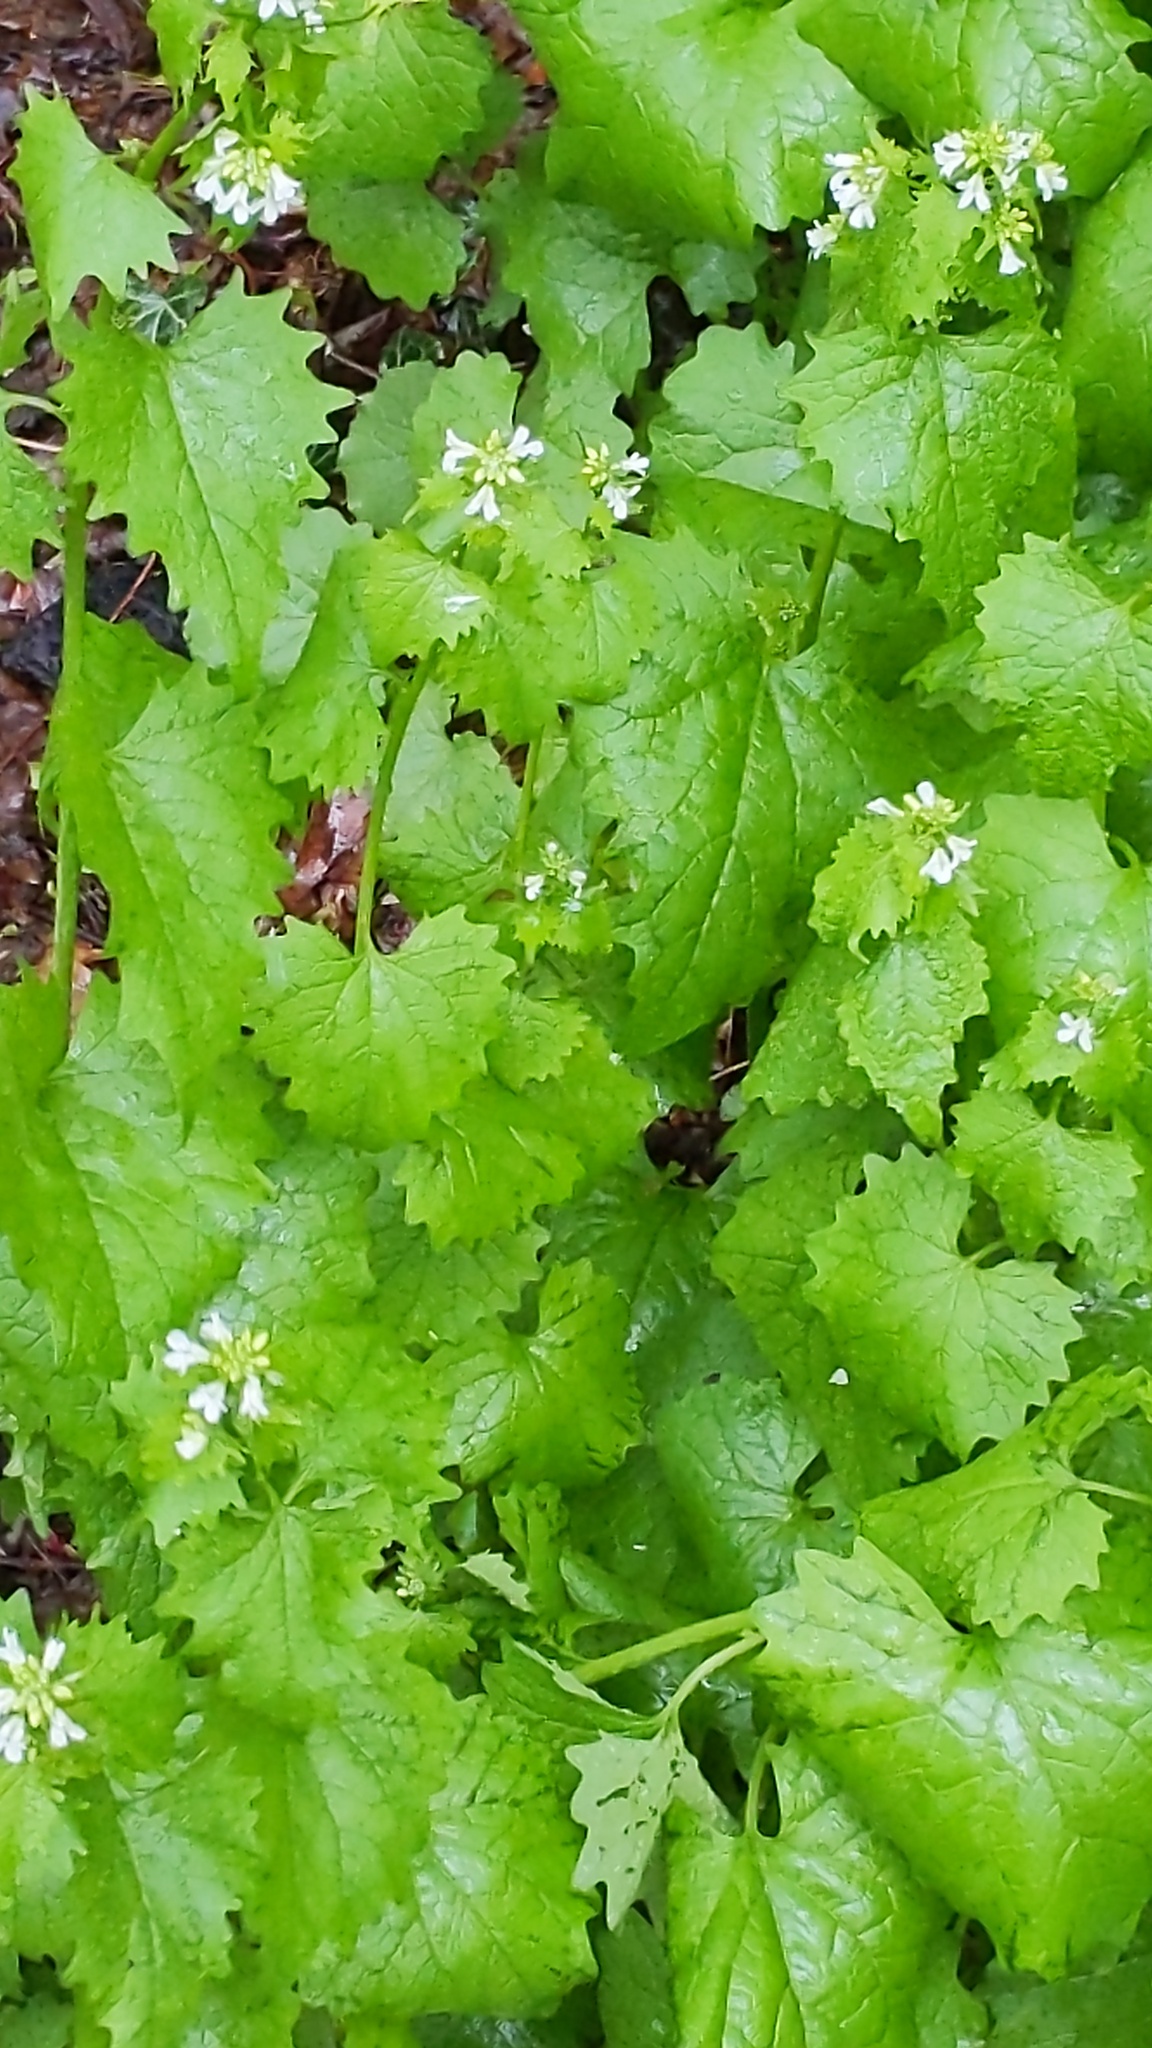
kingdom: Plantae
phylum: Tracheophyta
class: Magnoliopsida
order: Brassicales
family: Brassicaceae
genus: Alliaria
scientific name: Alliaria petiolata
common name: Garlic mustard
